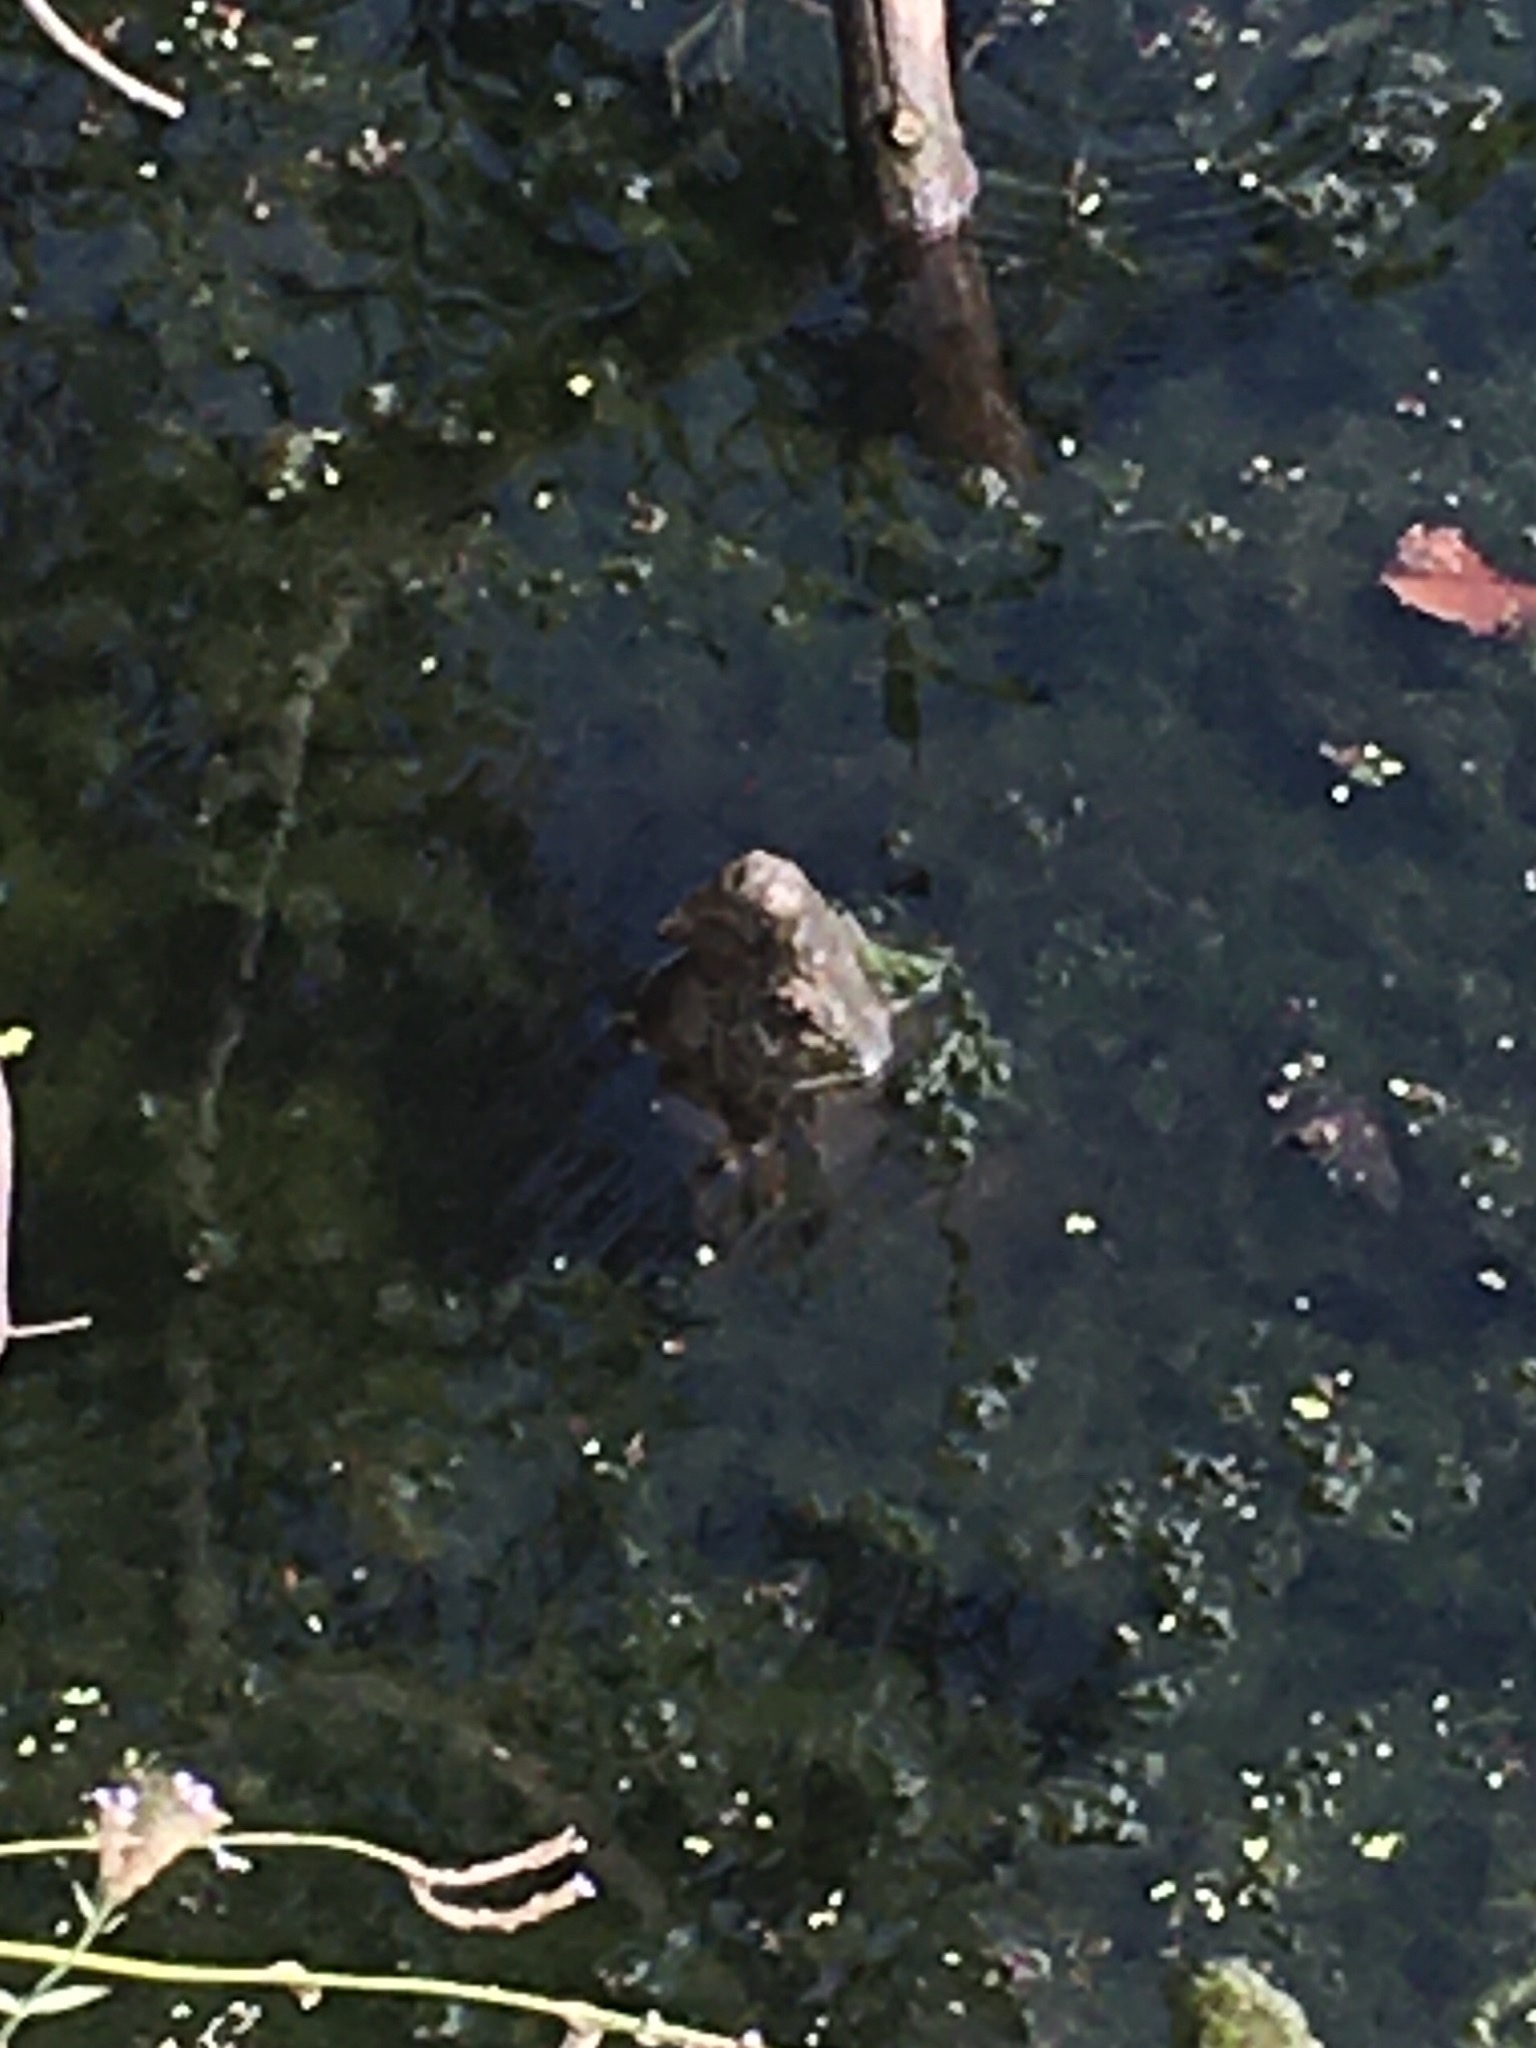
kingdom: Animalia
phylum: Chordata
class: Testudines
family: Chelydridae
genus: Macrochelys
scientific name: Macrochelys temminckii
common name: Alligator snapping turtle
